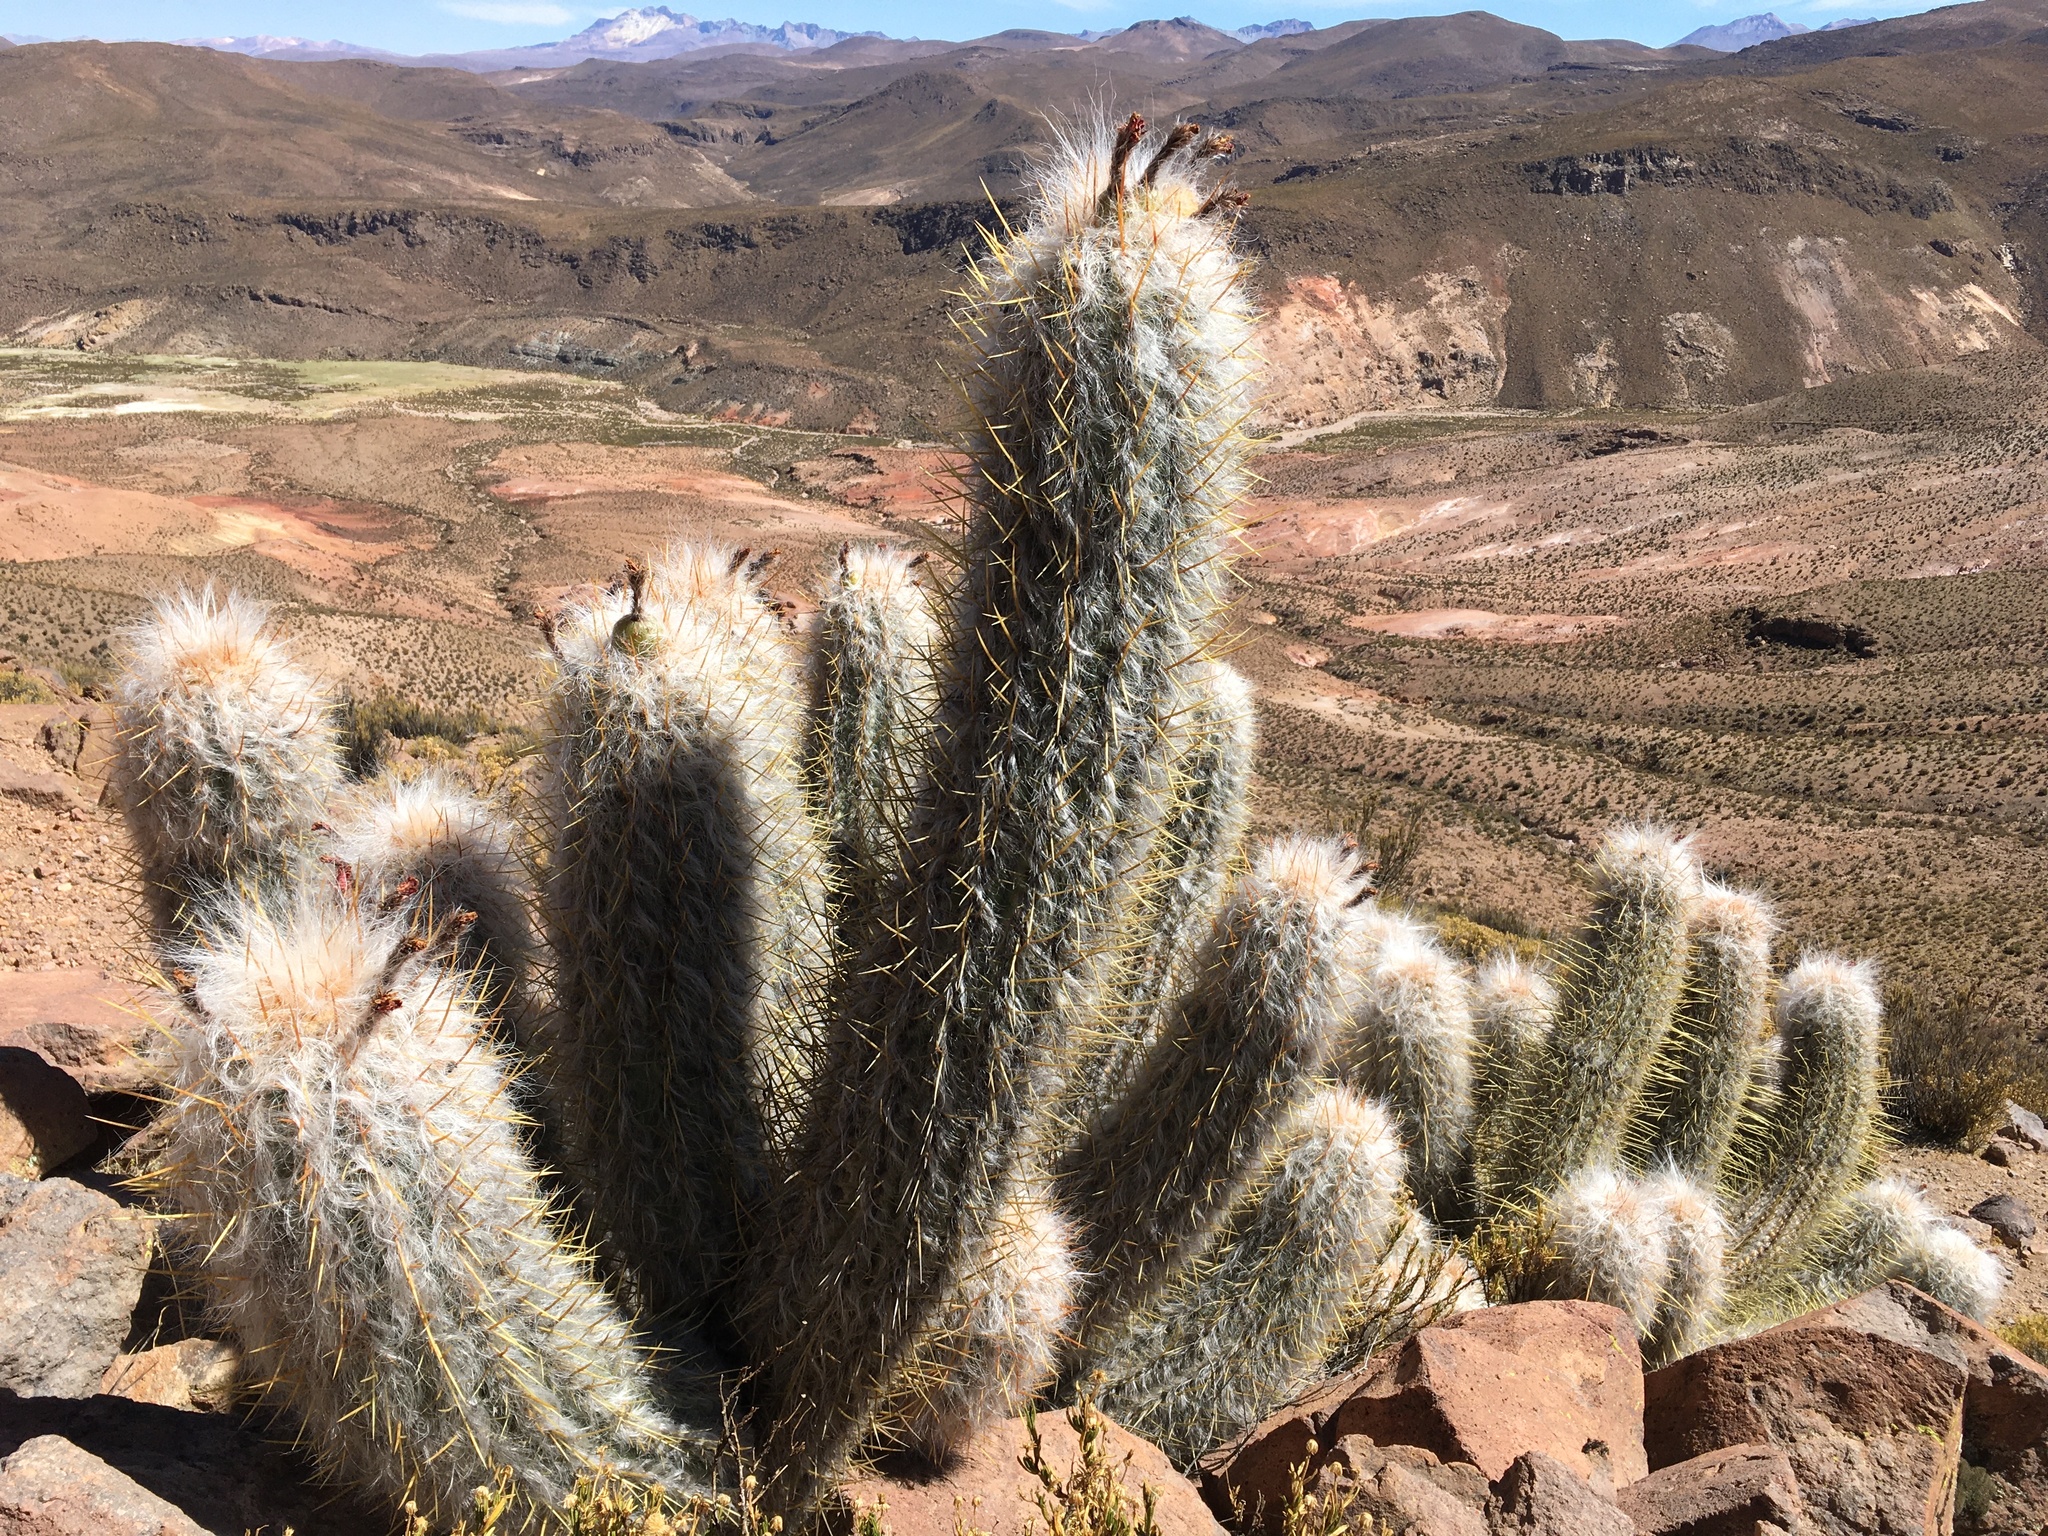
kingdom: Plantae
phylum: Tracheophyta
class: Magnoliopsida
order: Caryophyllales
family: Cactaceae
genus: Oreocereus
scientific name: Oreocereus leucotrichus
